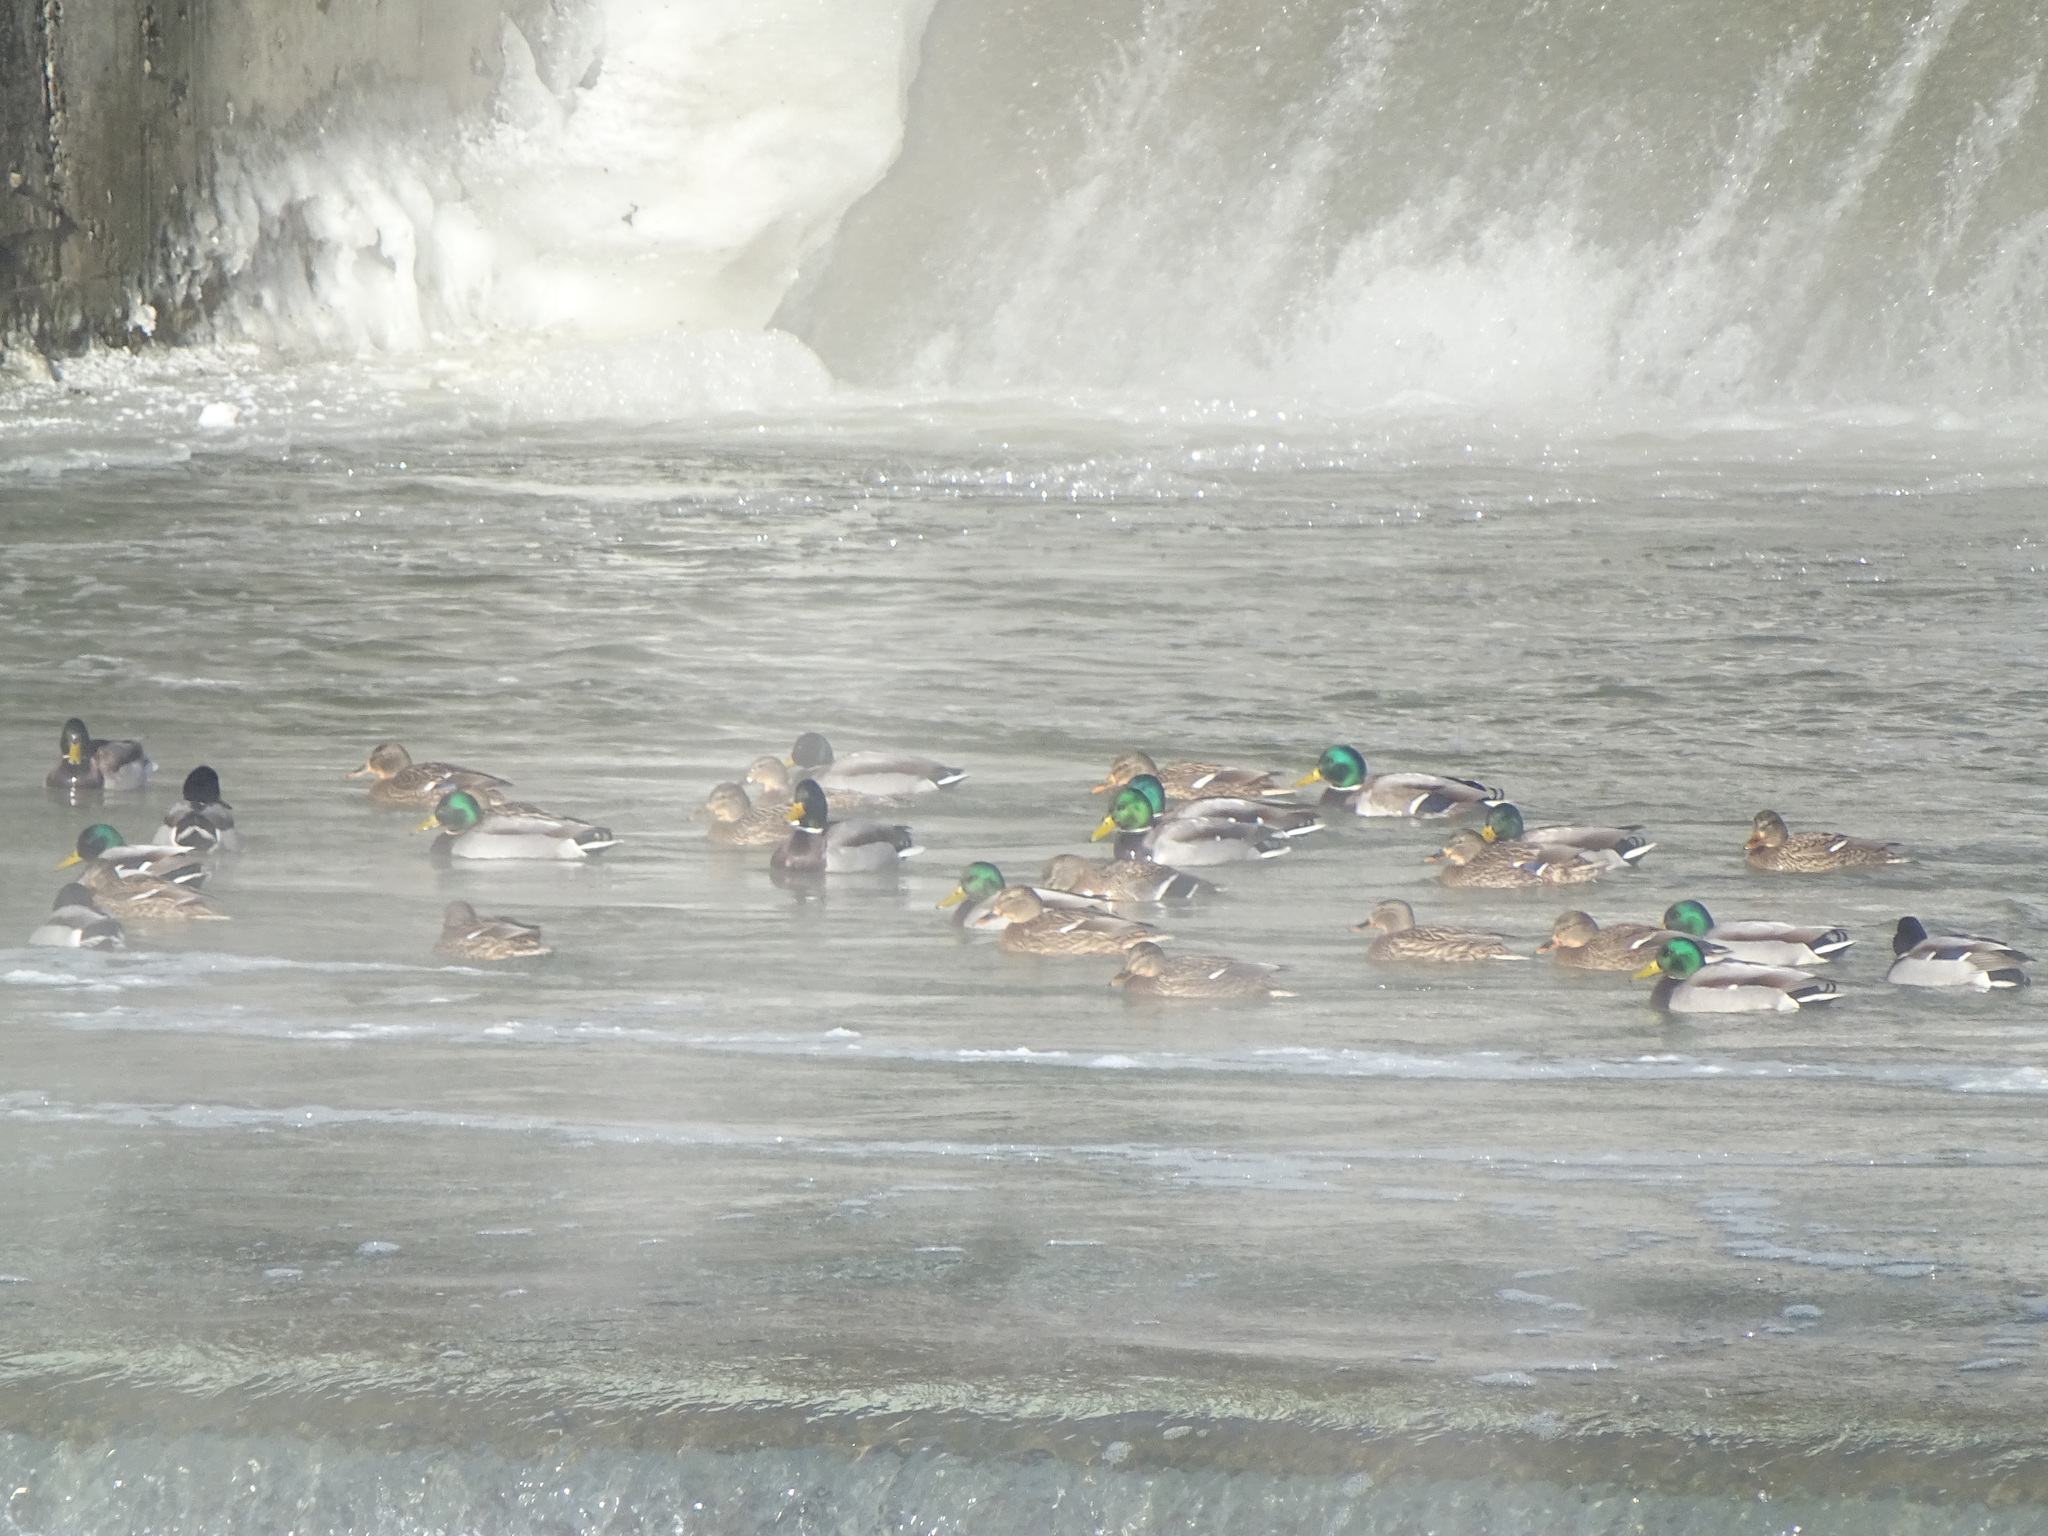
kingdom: Animalia
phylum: Chordata
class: Aves
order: Anseriformes
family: Anatidae
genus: Anas
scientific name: Anas platyrhynchos
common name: Mallard
